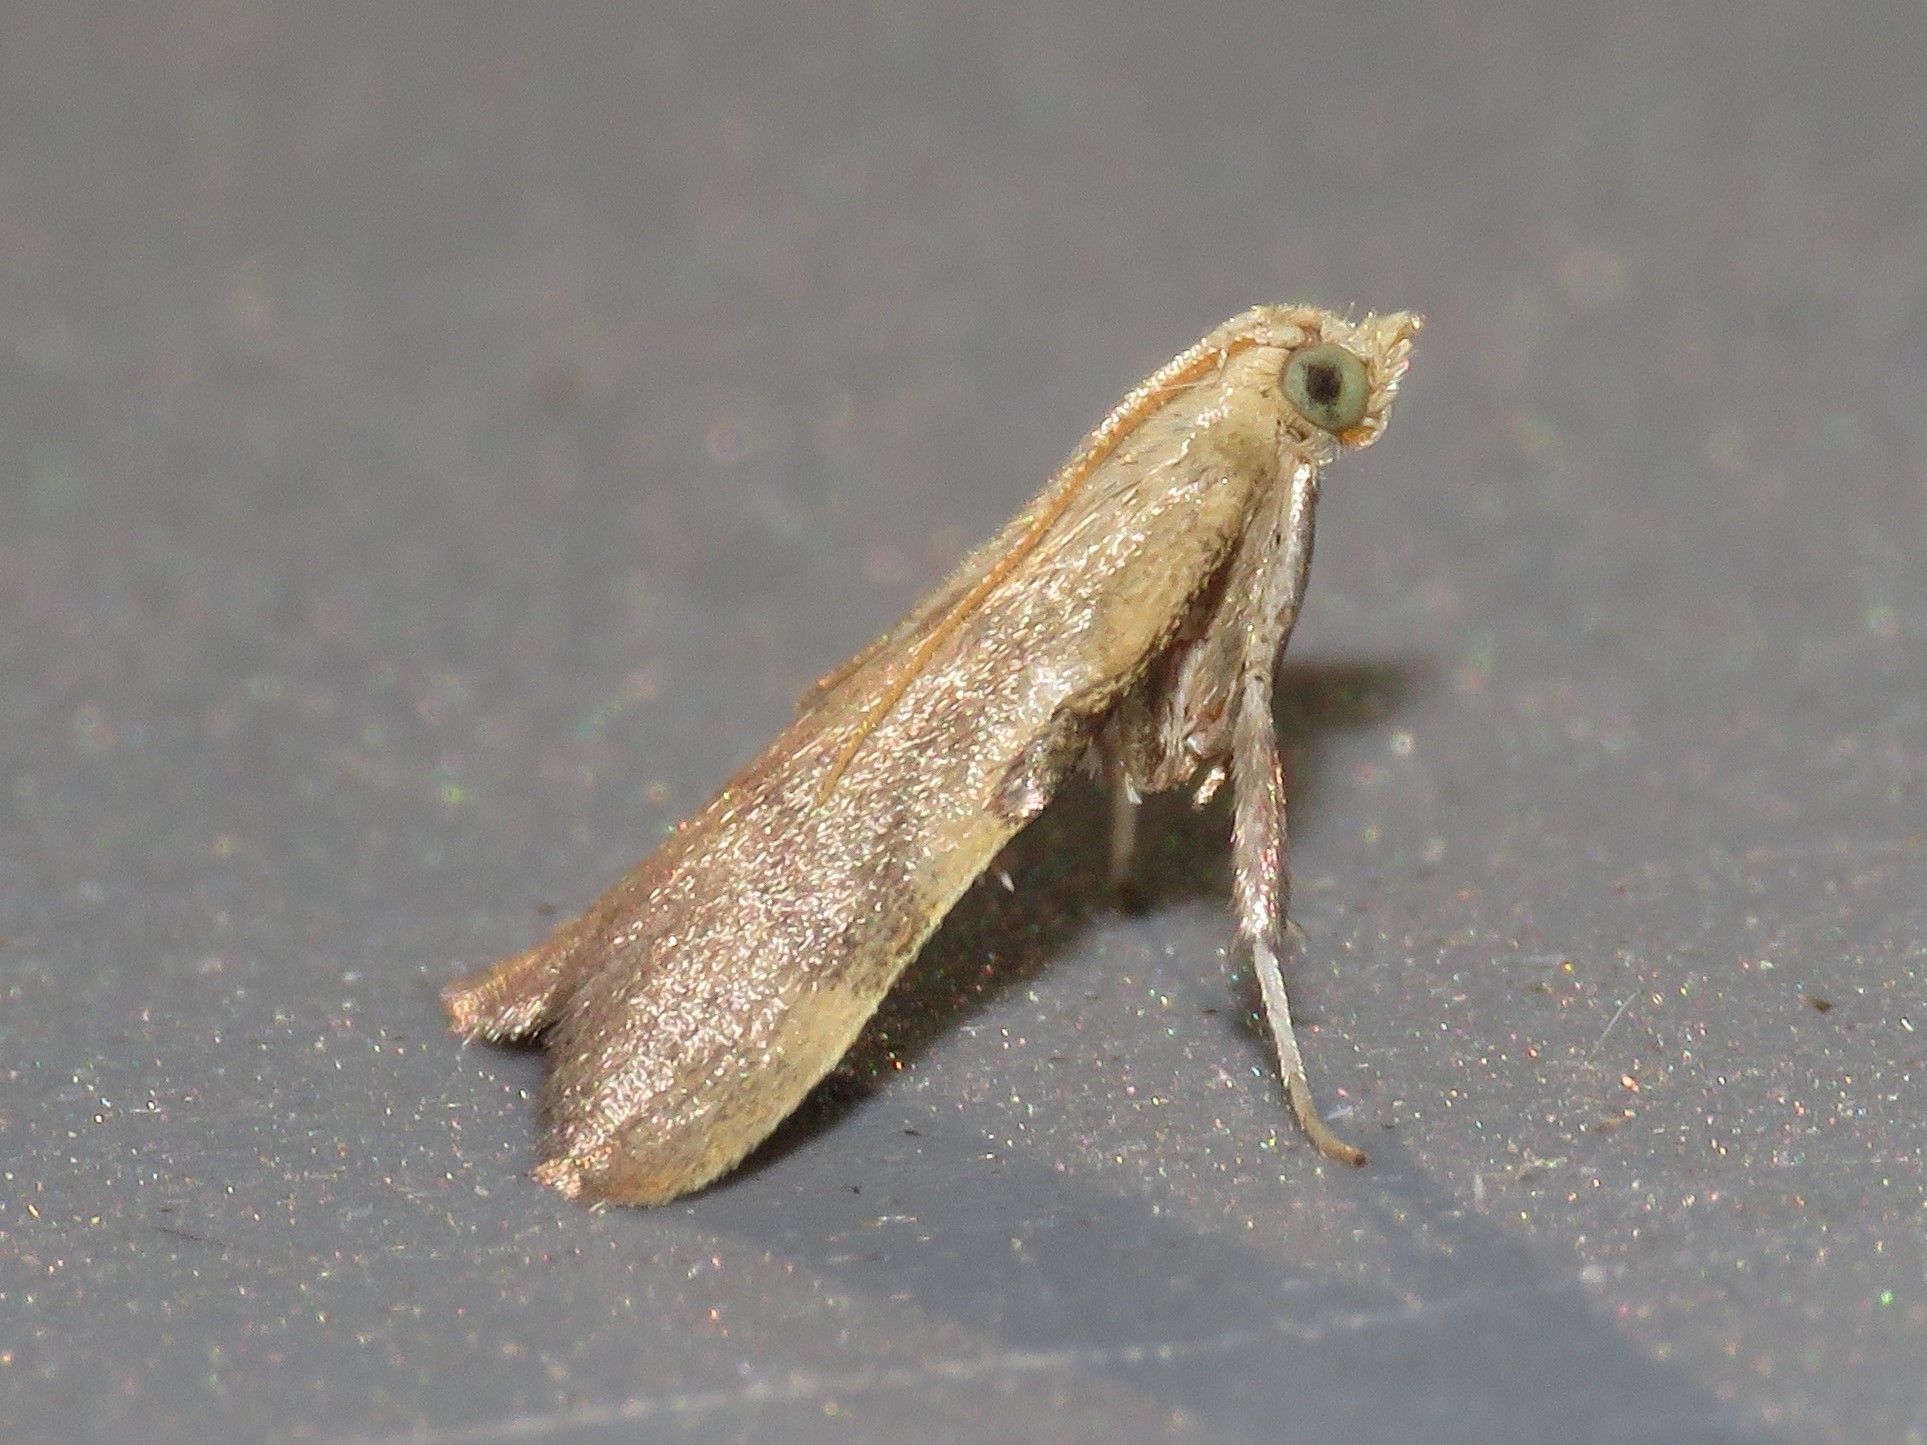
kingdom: Animalia
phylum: Arthropoda
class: Insecta
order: Lepidoptera
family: Pyralidae
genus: Condylolomia
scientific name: Condylolomia participialis
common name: Drab condylolomia moth
